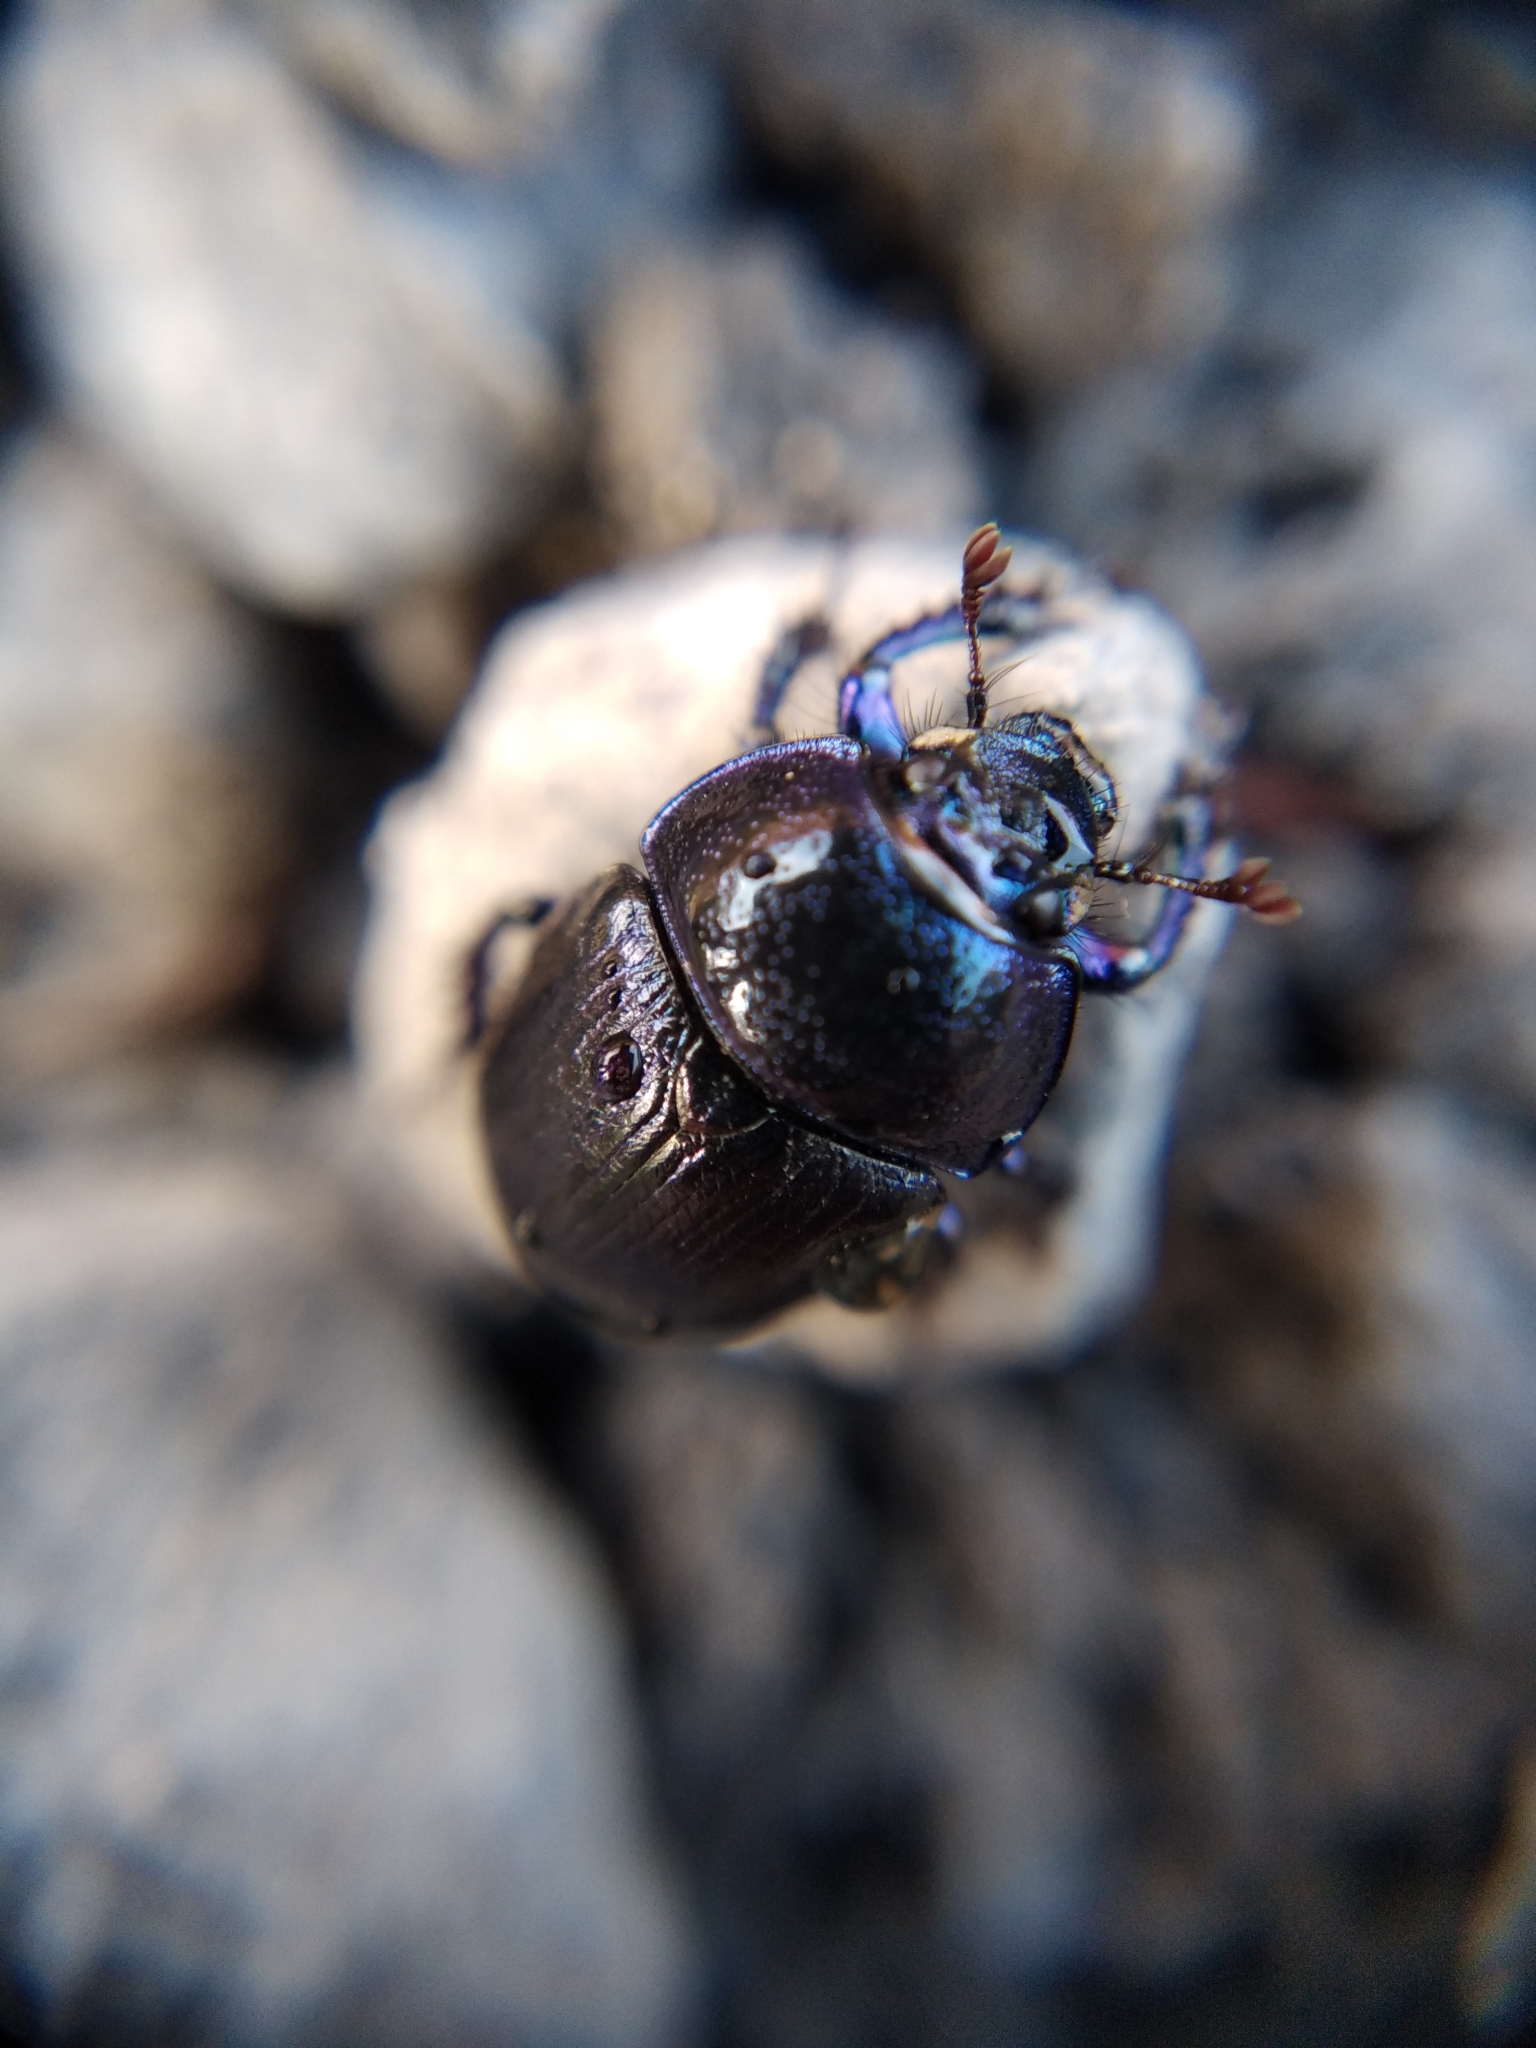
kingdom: Animalia
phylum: Arthropoda
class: Insecta
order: Coleoptera
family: Geotrupidae
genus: Anoplotrupes
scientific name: Anoplotrupes stercorosus
